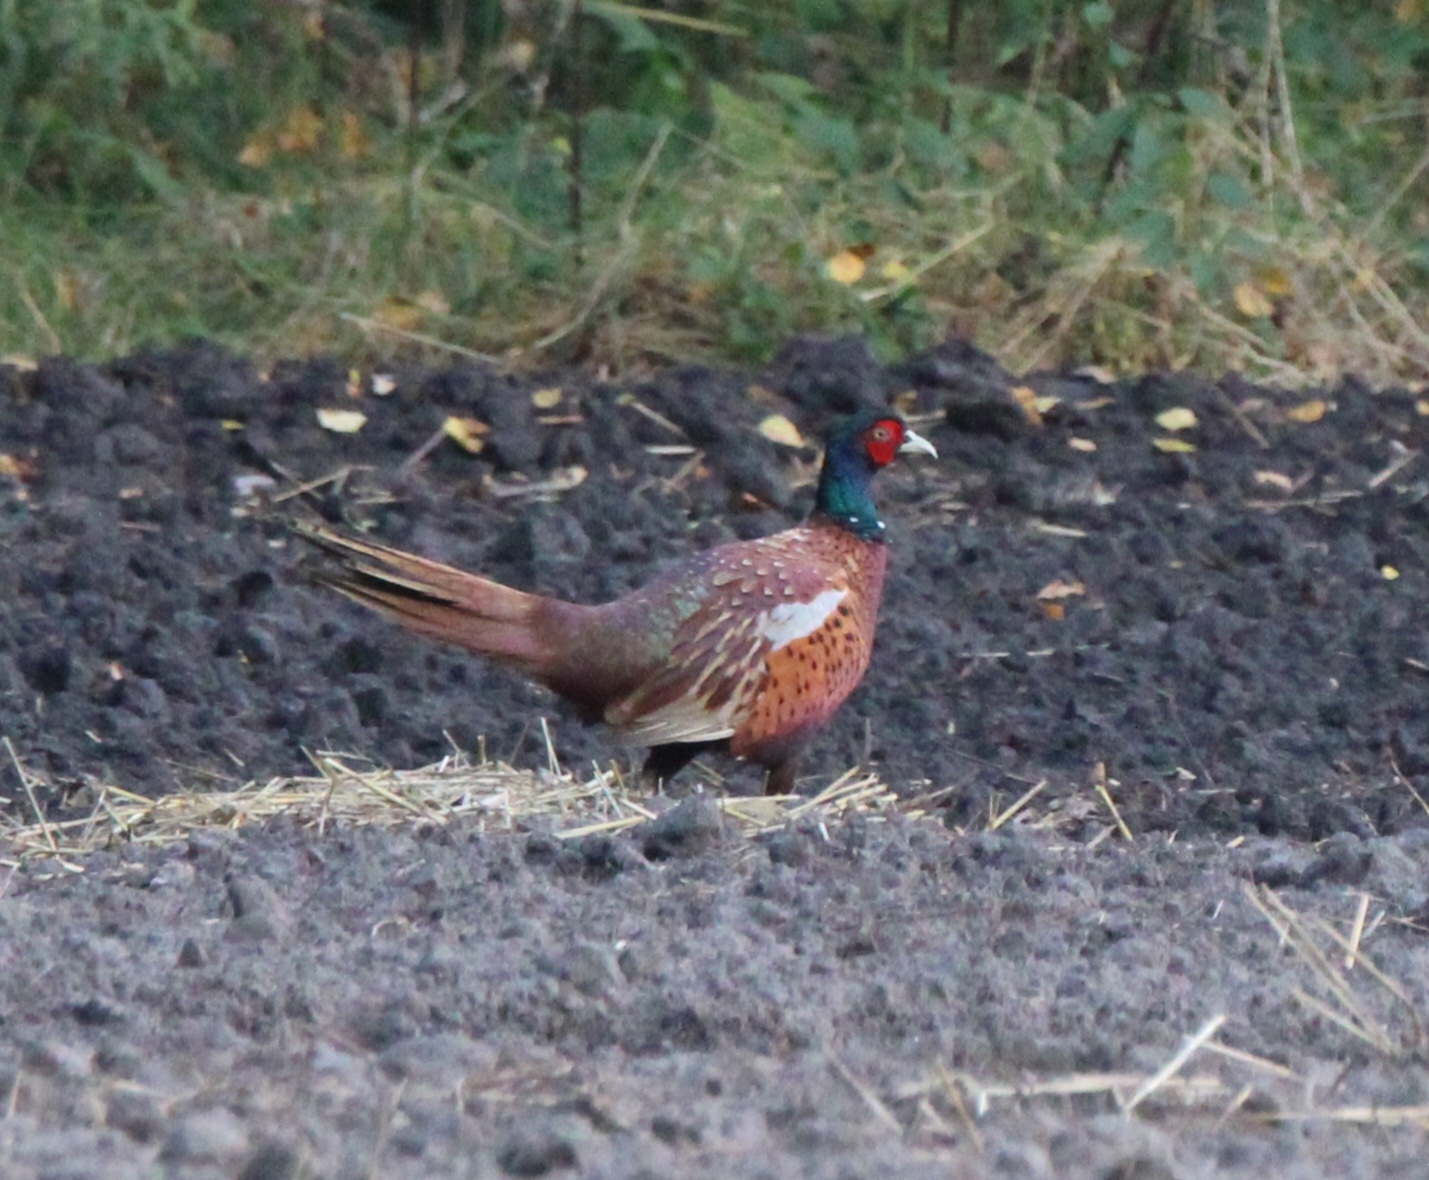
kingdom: Animalia
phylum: Chordata
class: Aves
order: Galliformes
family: Phasianidae
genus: Phasianus
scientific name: Phasianus colchicus
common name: Common pheasant
